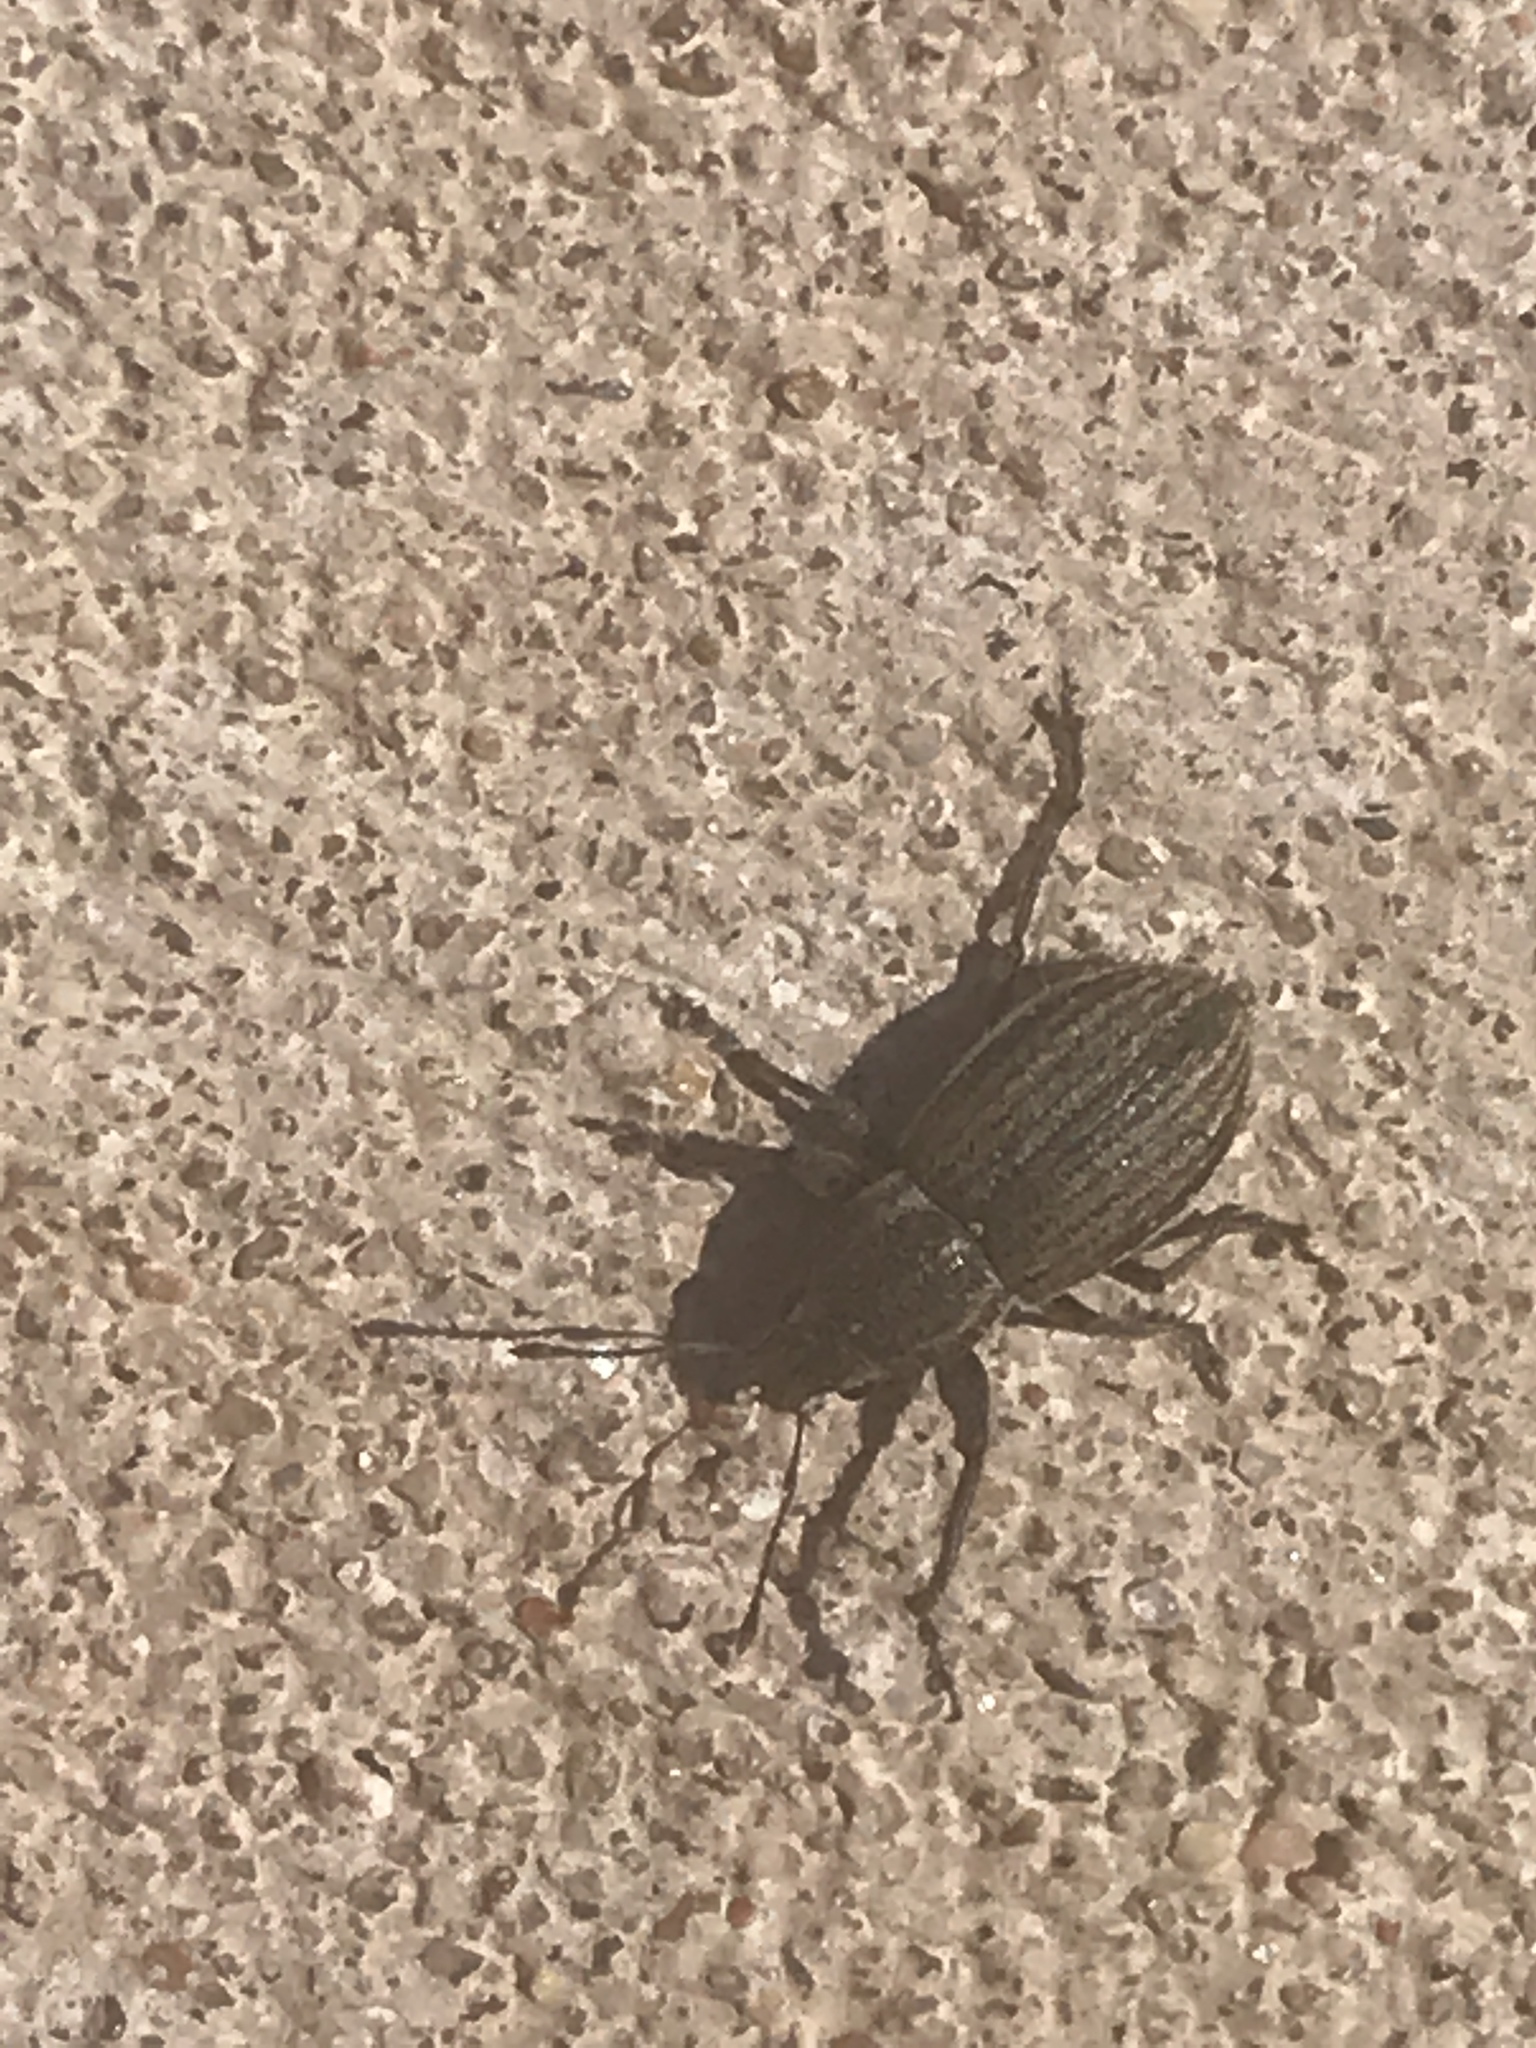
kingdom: Animalia
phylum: Arthropoda
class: Insecta
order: Coleoptera
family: Curculionidae
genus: Naupactus
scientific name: Naupactus leucoloma
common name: Whitefringed beetle
